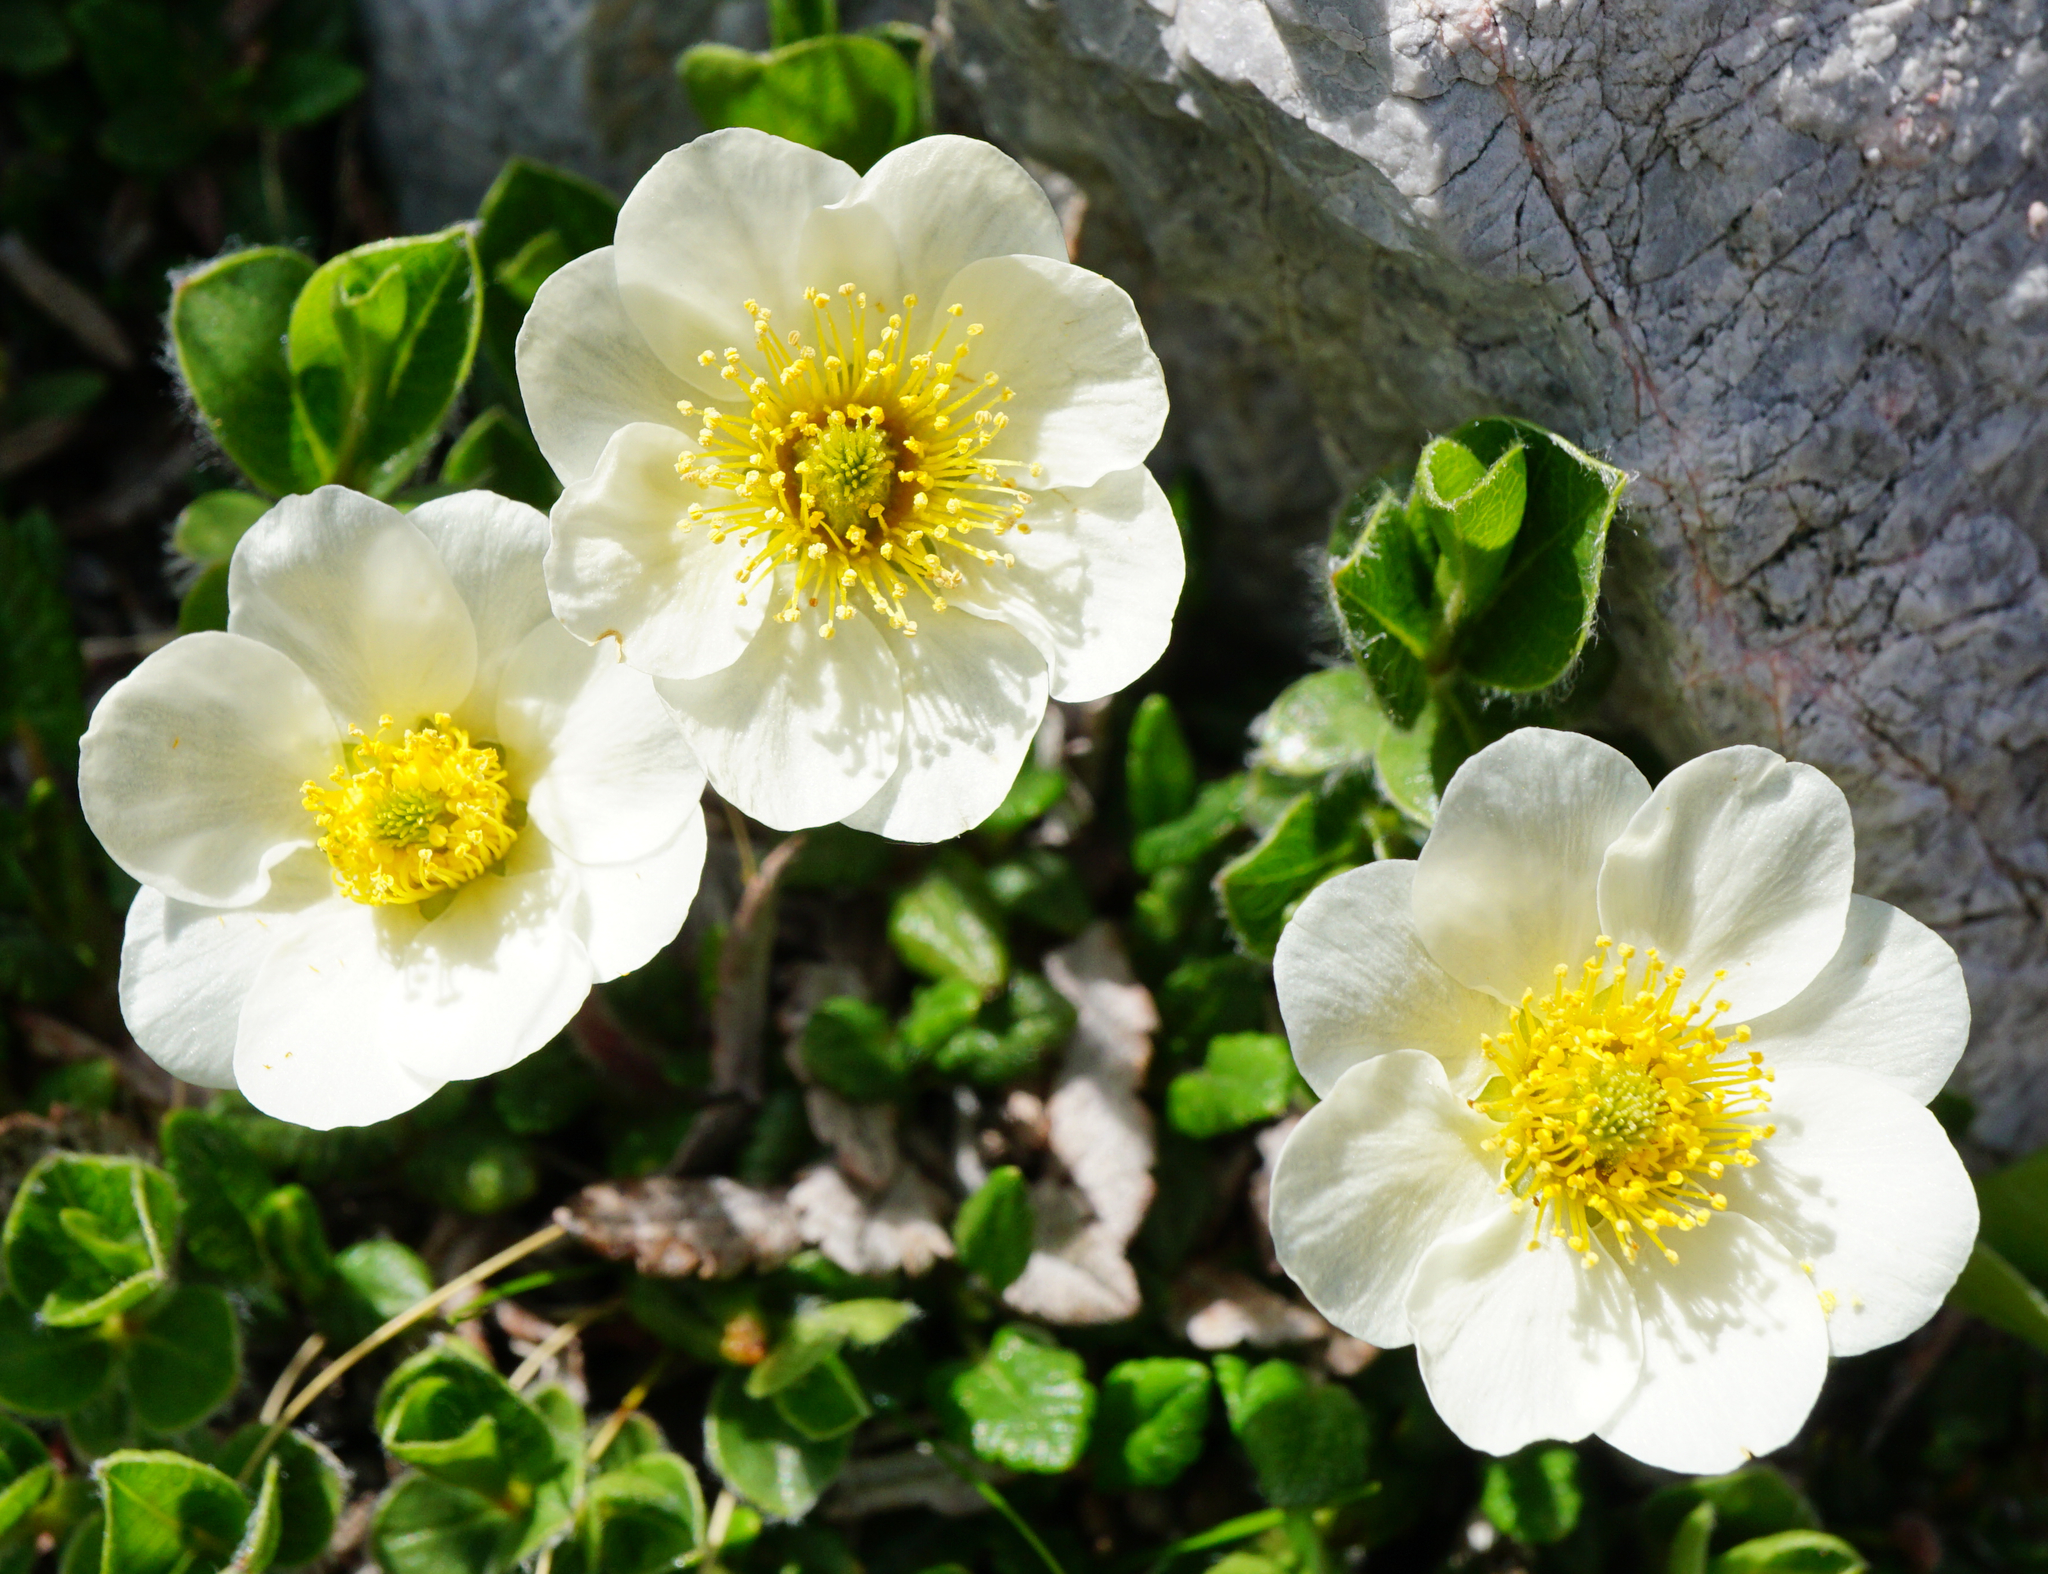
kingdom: Plantae
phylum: Tracheophyta
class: Magnoliopsida
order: Rosales
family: Rosaceae
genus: Dryas
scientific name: Dryas octopetala
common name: Eight-petal mountain-avens
